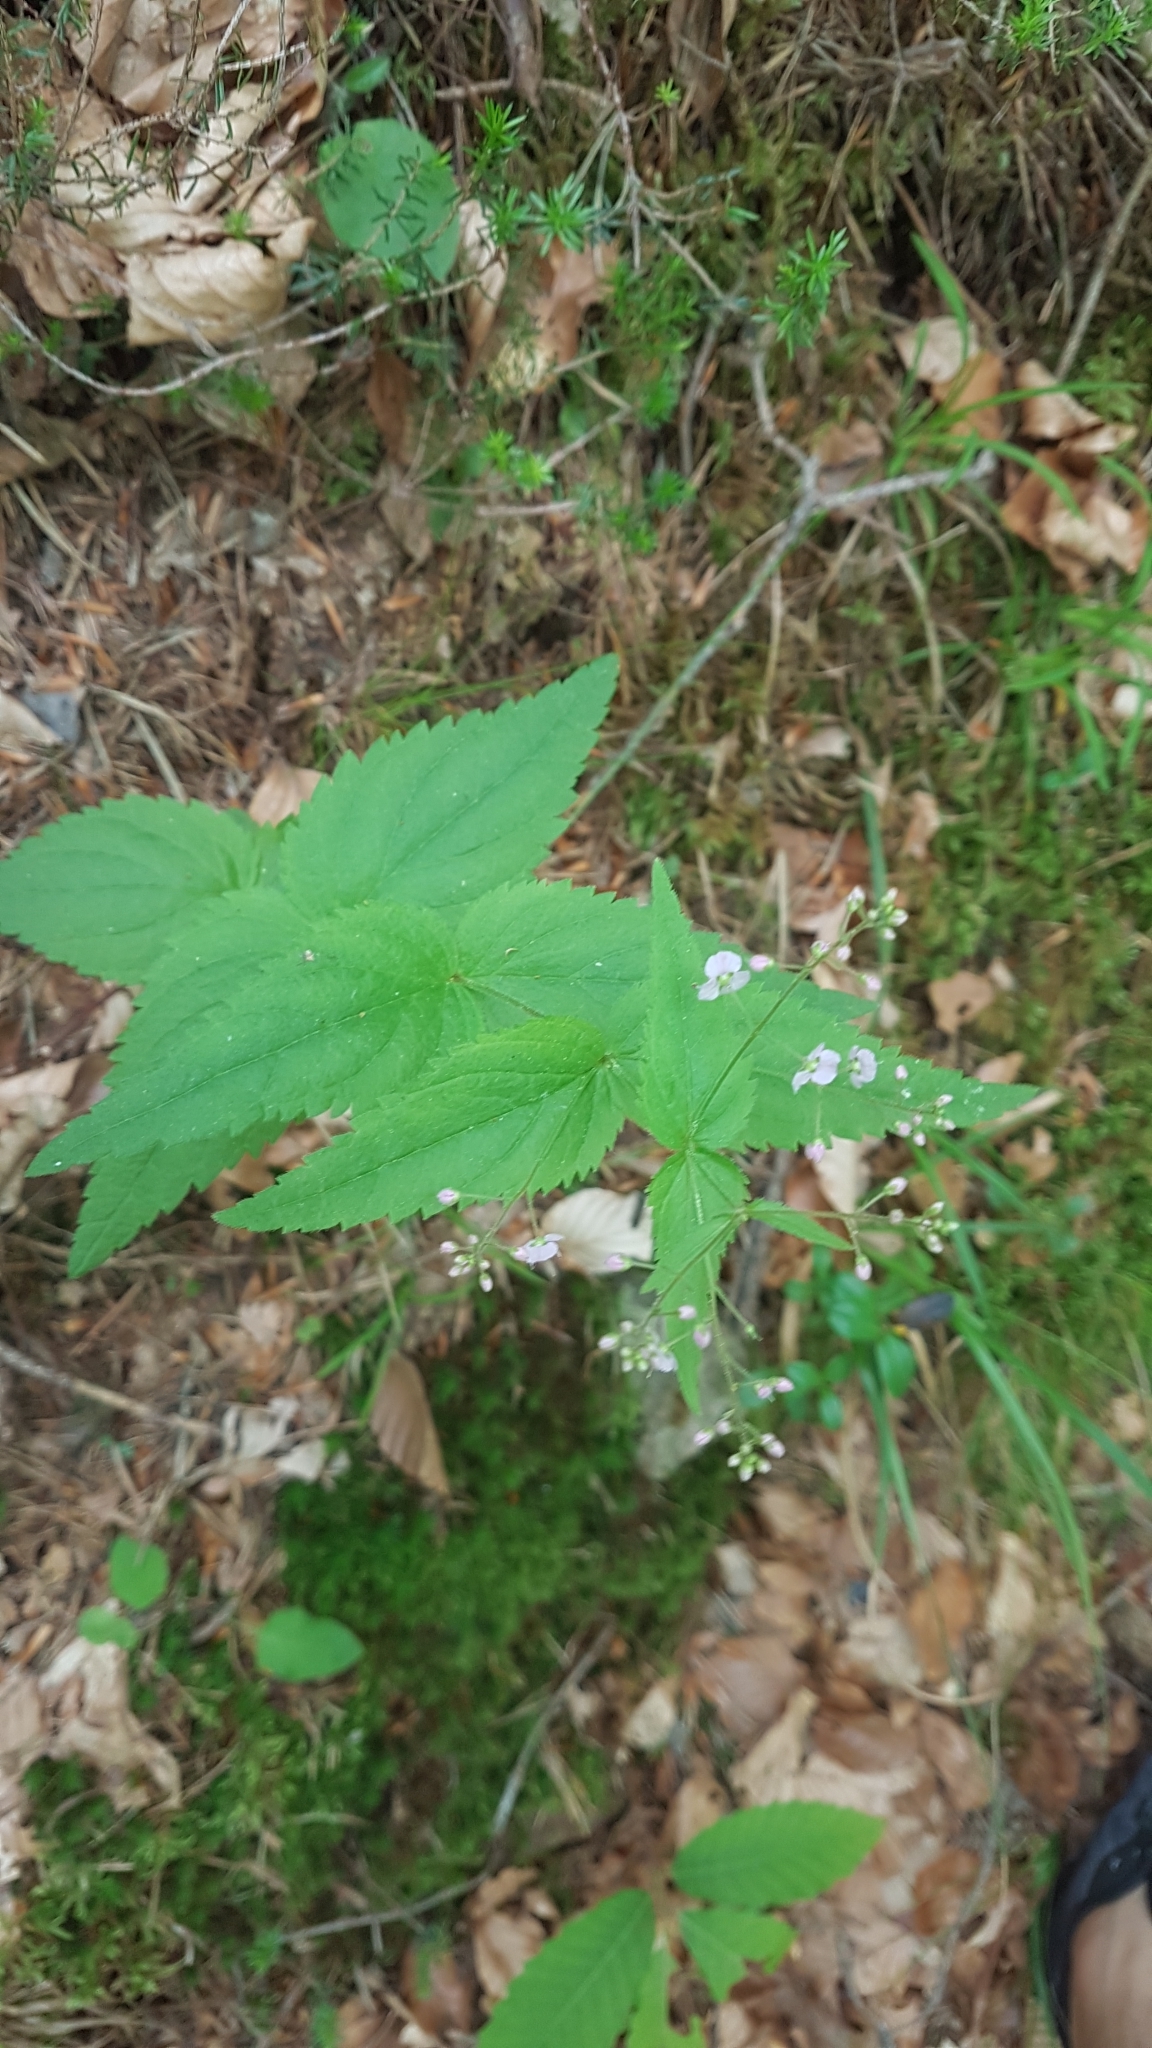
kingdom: Plantae
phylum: Tracheophyta
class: Magnoliopsida
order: Lamiales
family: Plantaginaceae
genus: Veronica
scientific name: Veronica urticifolia
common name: Nettle-leaf speedwell
